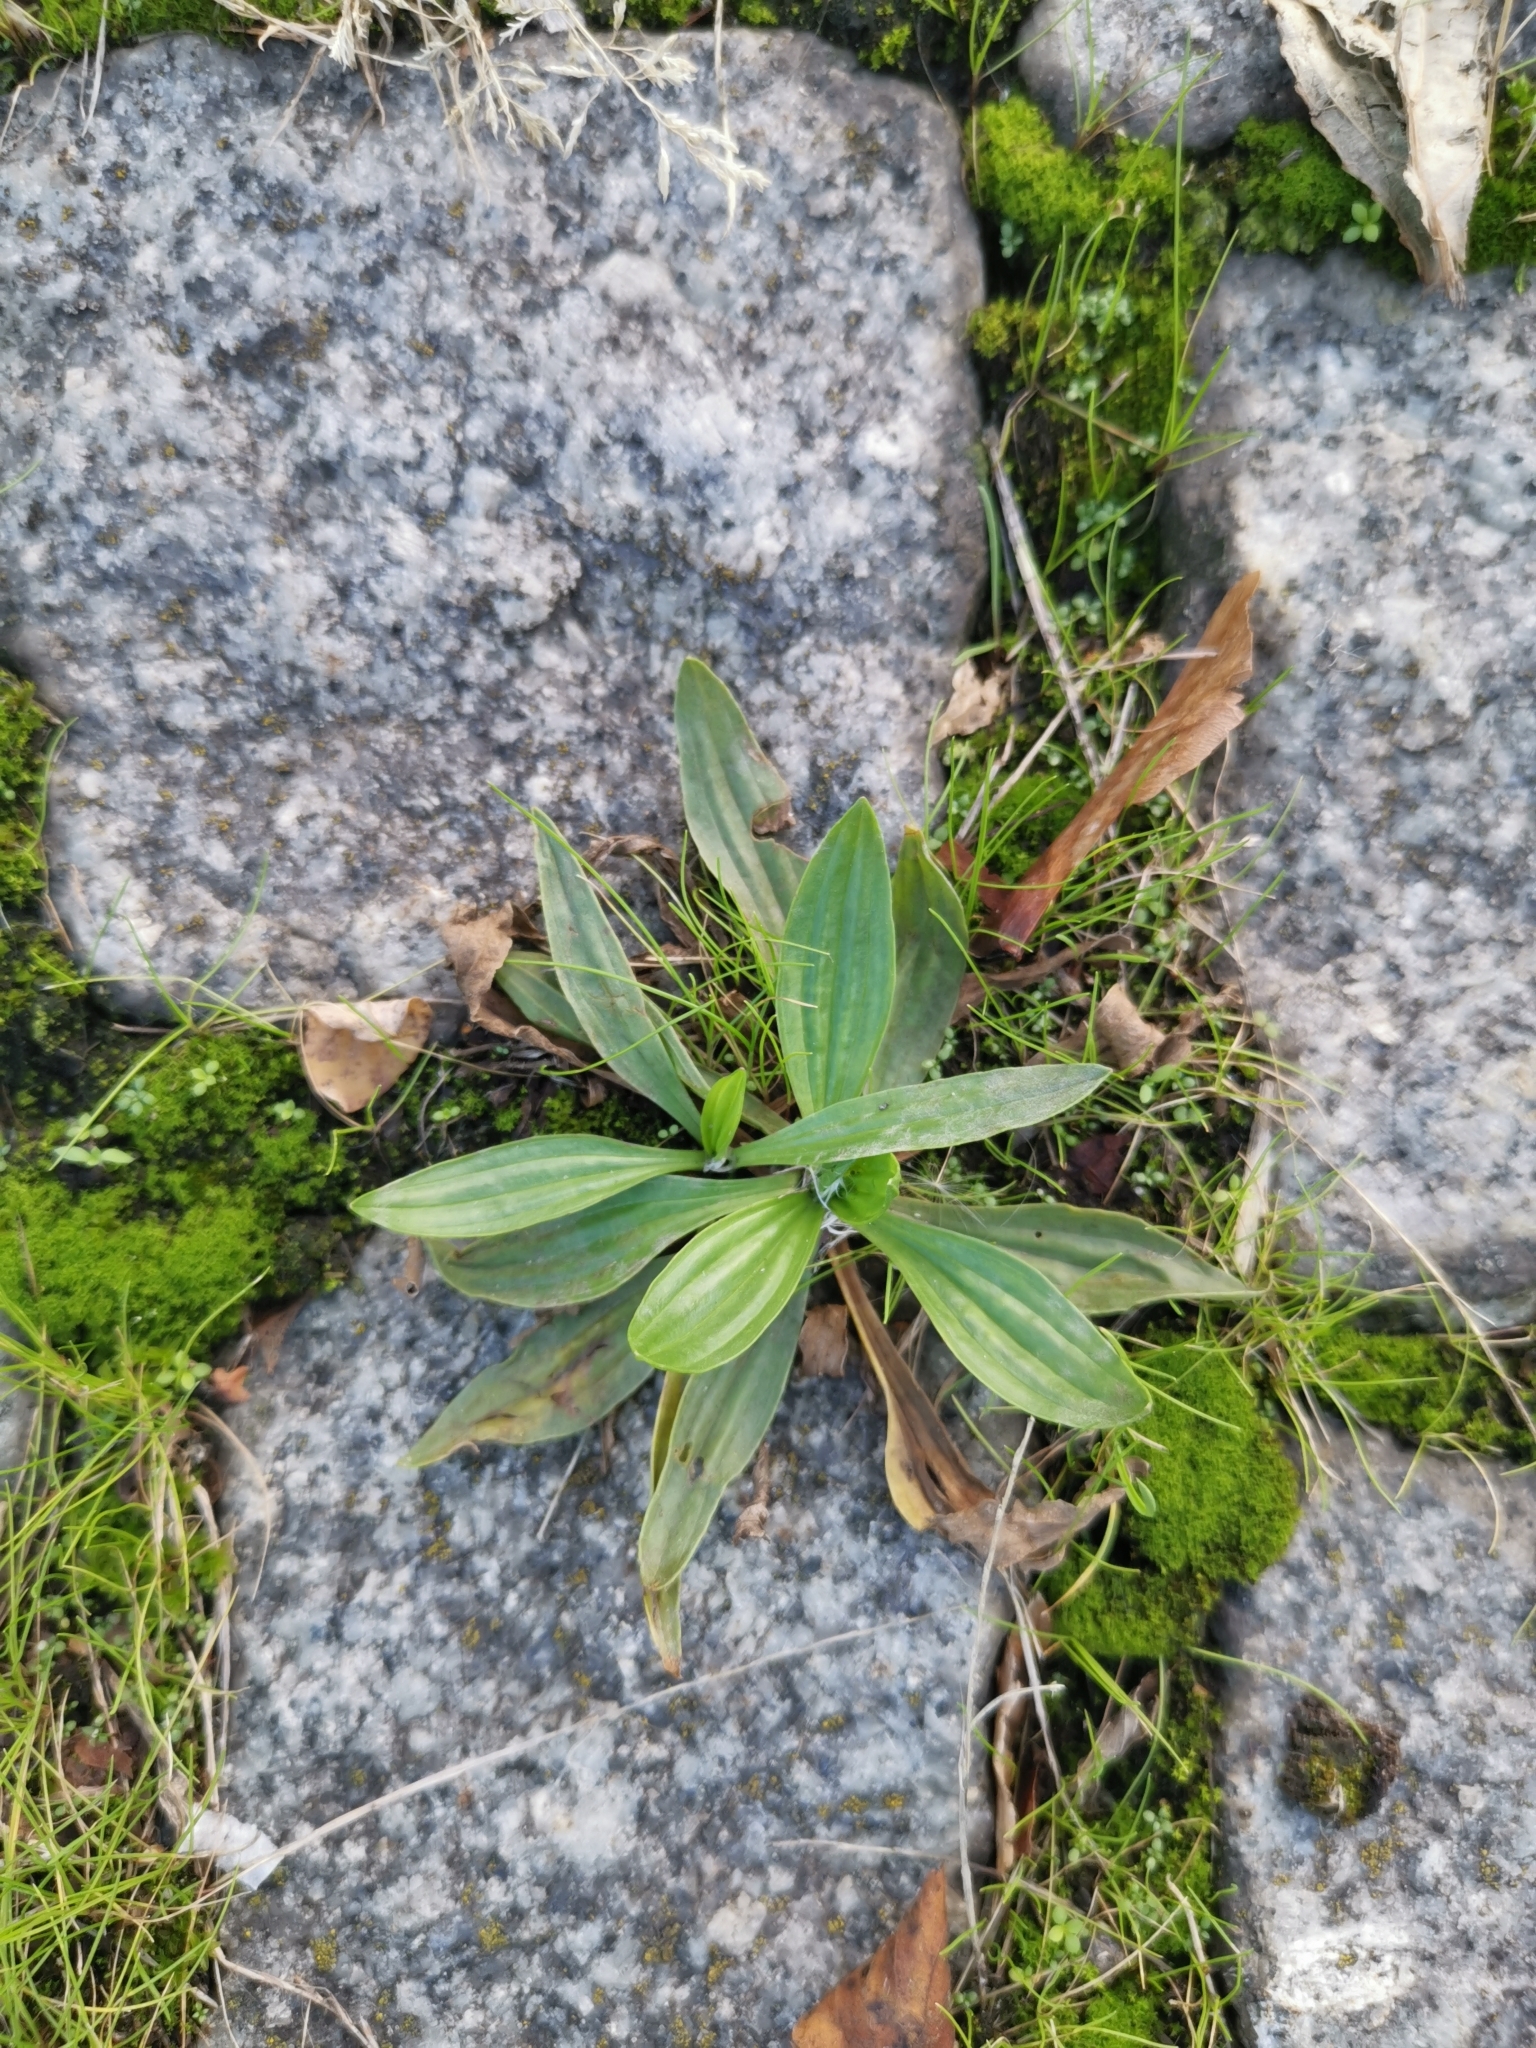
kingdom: Plantae
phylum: Tracheophyta
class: Magnoliopsida
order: Lamiales
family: Plantaginaceae
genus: Plantago
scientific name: Plantago lanceolata
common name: Ribwort plantain
